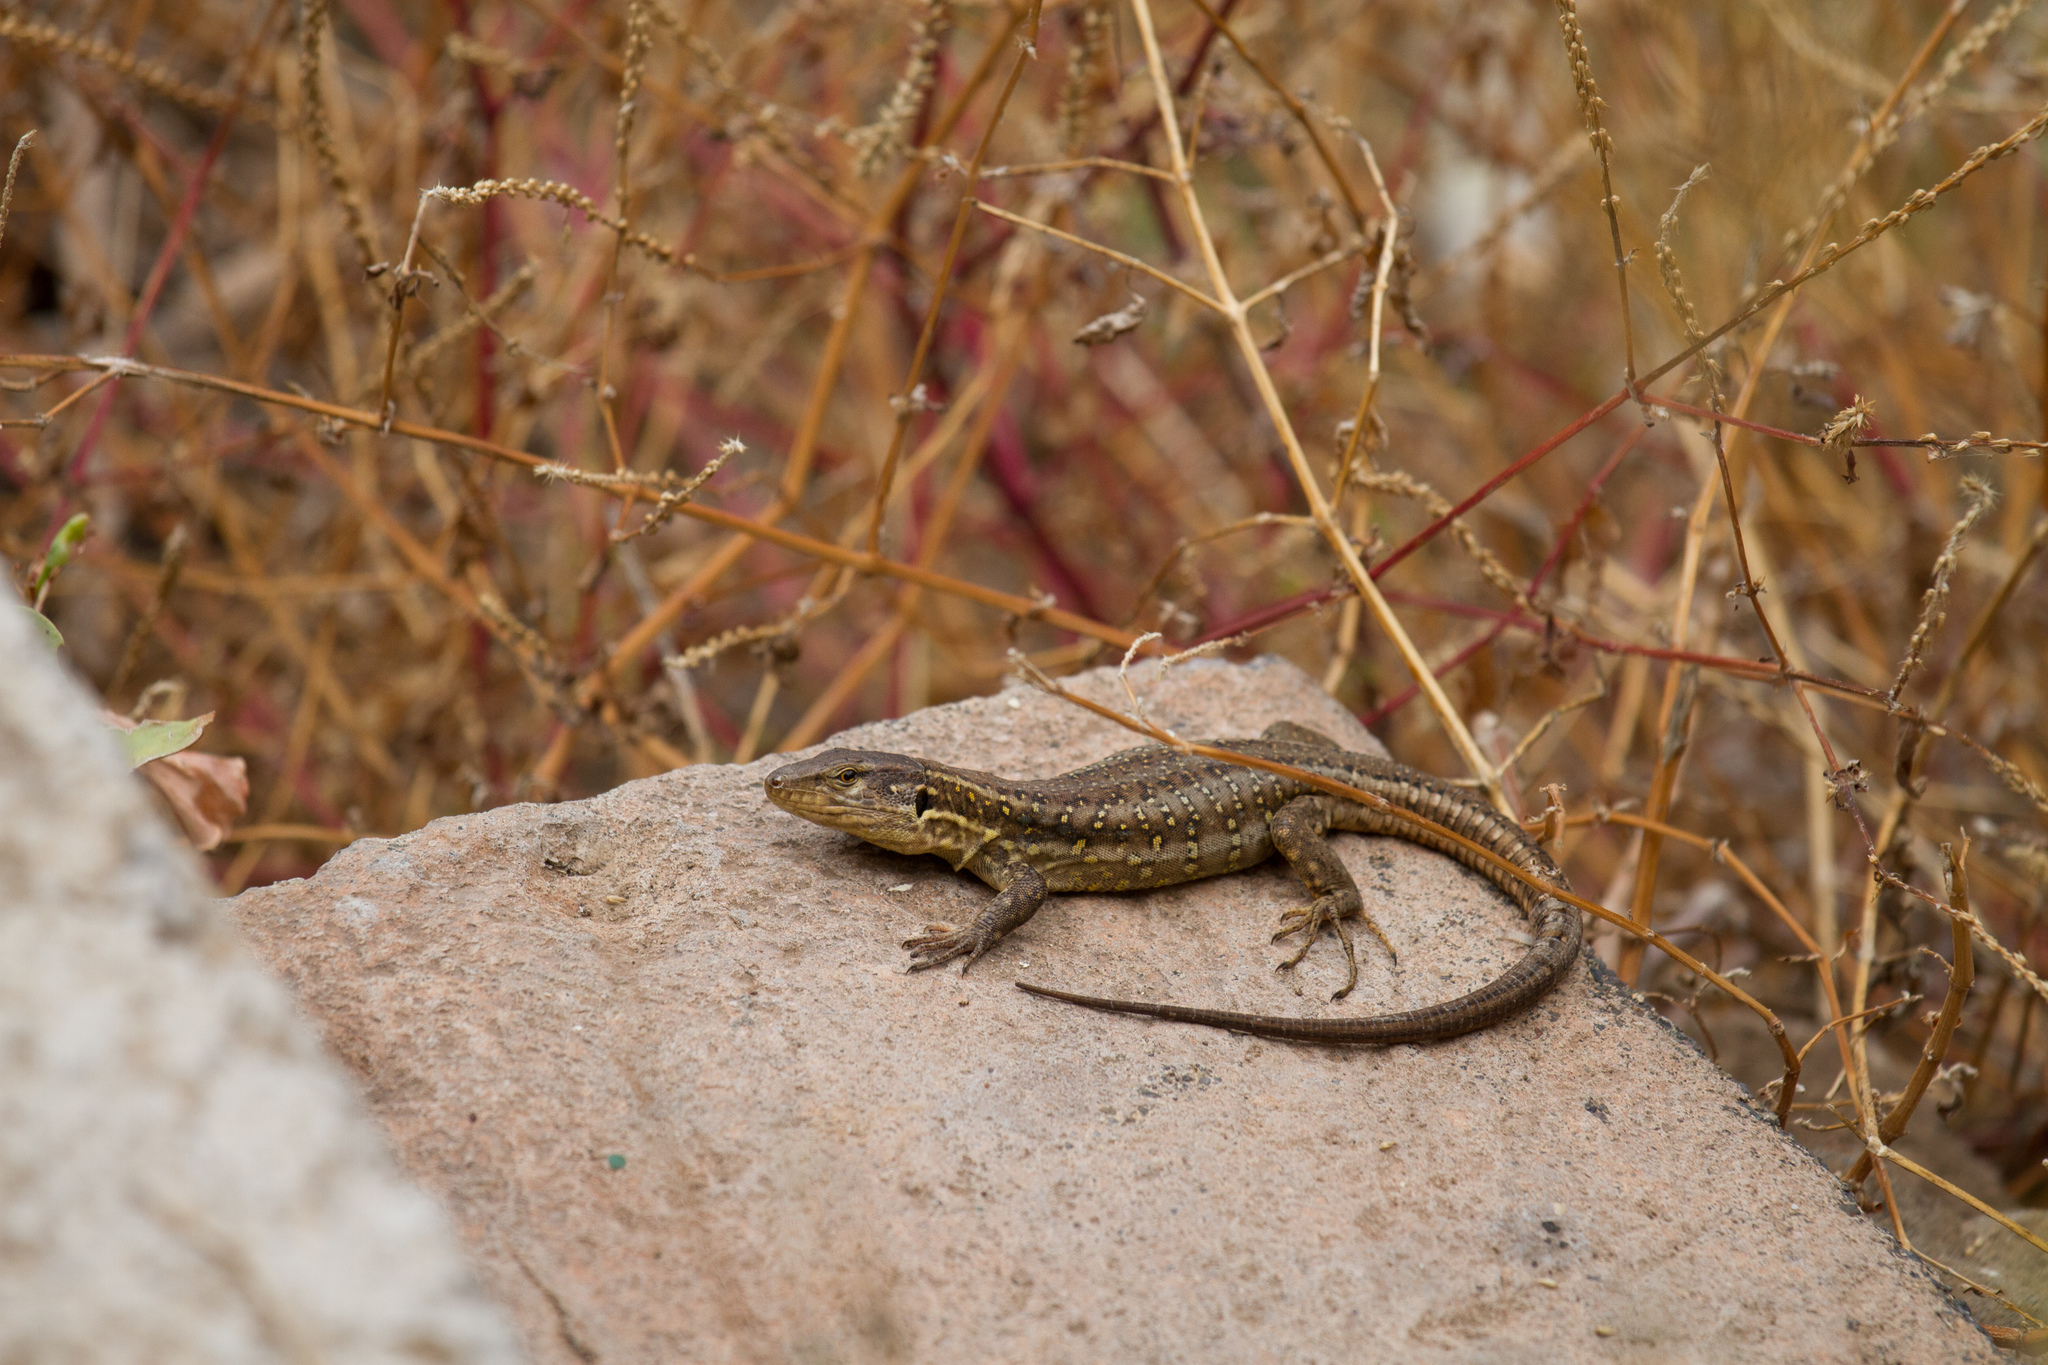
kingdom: Animalia
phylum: Chordata
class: Squamata
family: Lacertidae
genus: Gallotia
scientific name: Gallotia stehlini
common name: Gran canaria giant lizard
